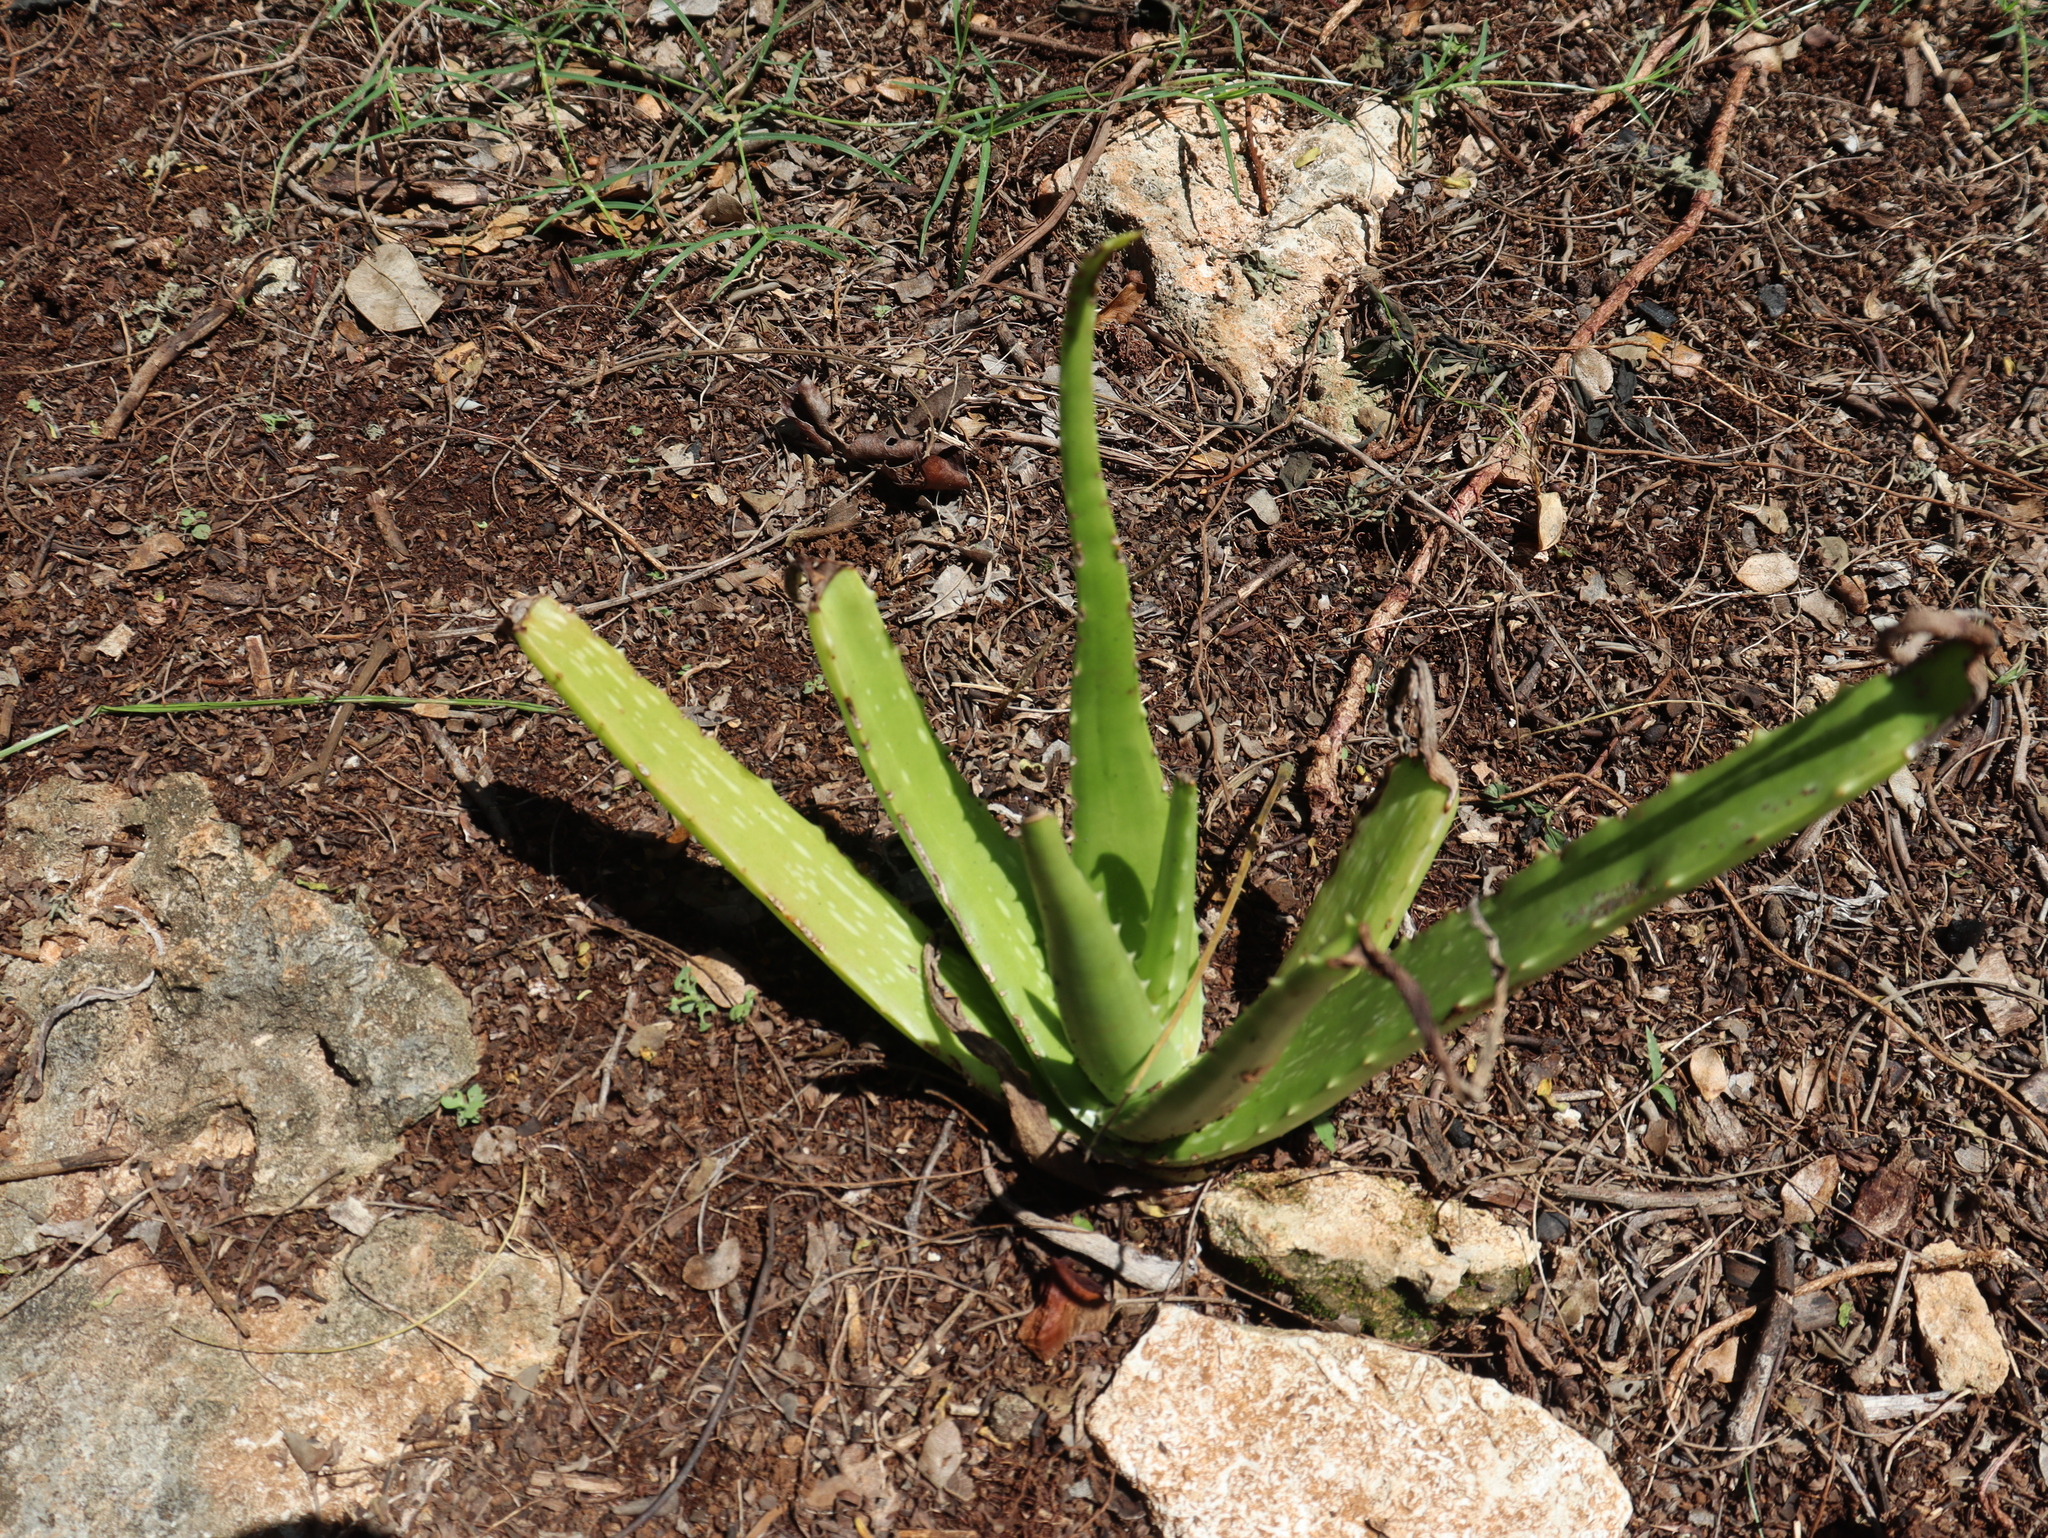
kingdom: Plantae
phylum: Tracheophyta
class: Liliopsida
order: Asparagales
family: Asphodelaceae
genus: Aloe
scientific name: Aloe vera
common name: Barbados aloe
